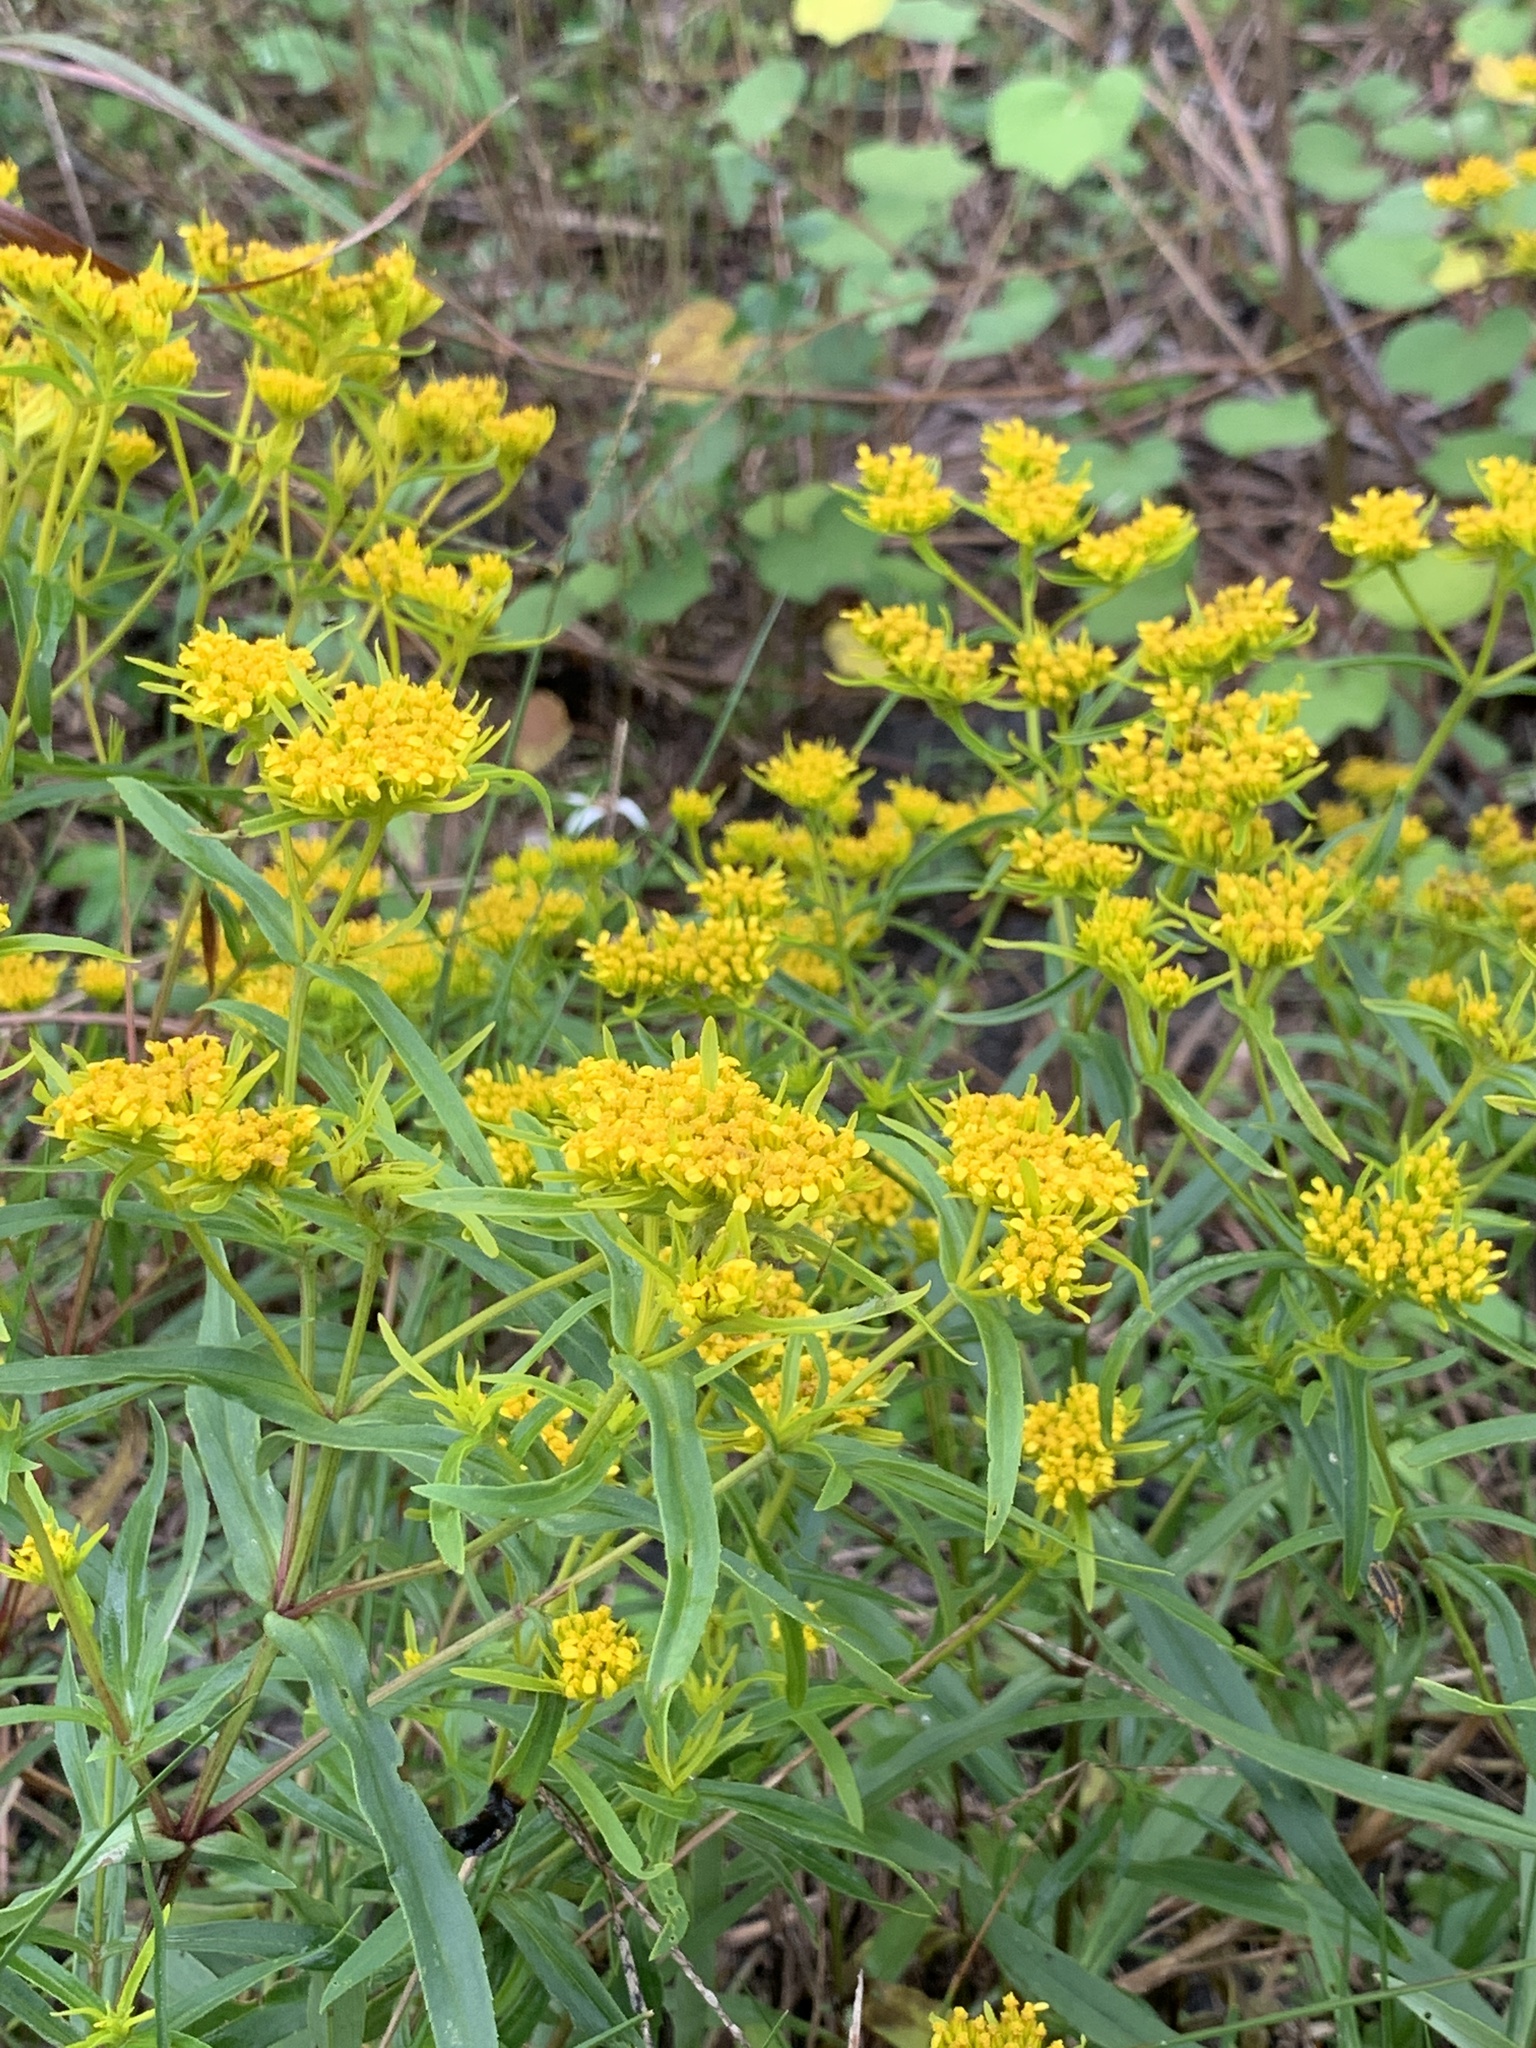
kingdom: Plantae
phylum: Tracheophyta
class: Magnoliopsida
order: Asterales
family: Asteraceae
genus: Flaveria
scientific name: Flaveria linearis
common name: Yellowtop
